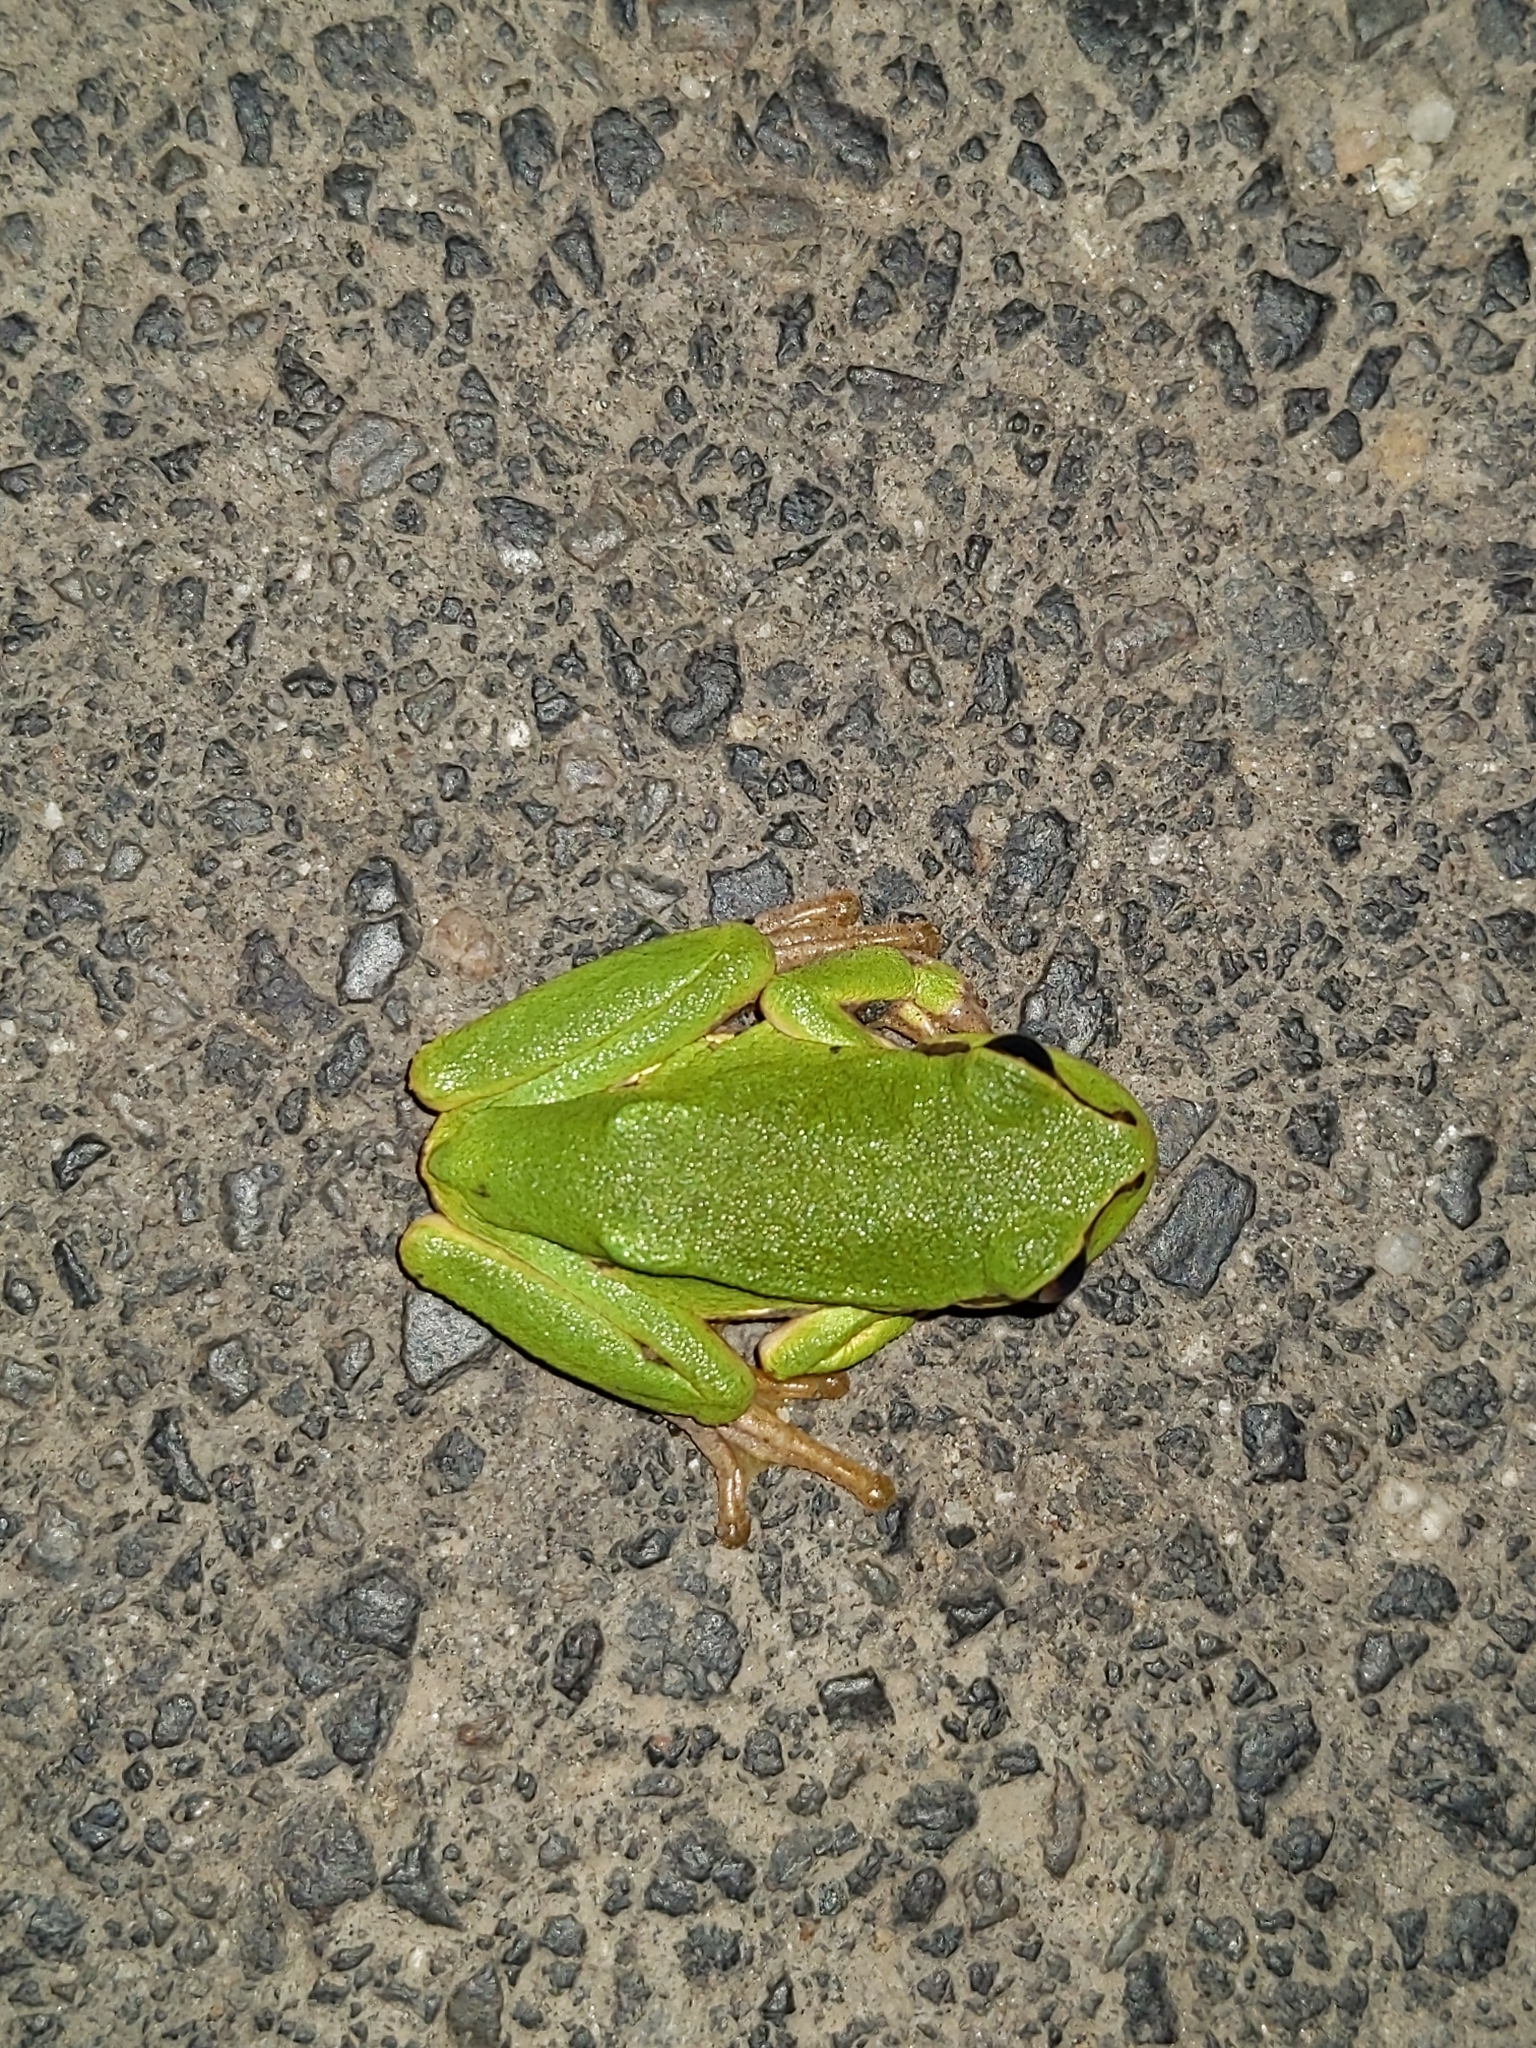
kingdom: Animalia
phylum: Chordata
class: Amphibia
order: Anura
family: Hylidae
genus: Hyla
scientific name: Hyla arborea
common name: Common tree frog
